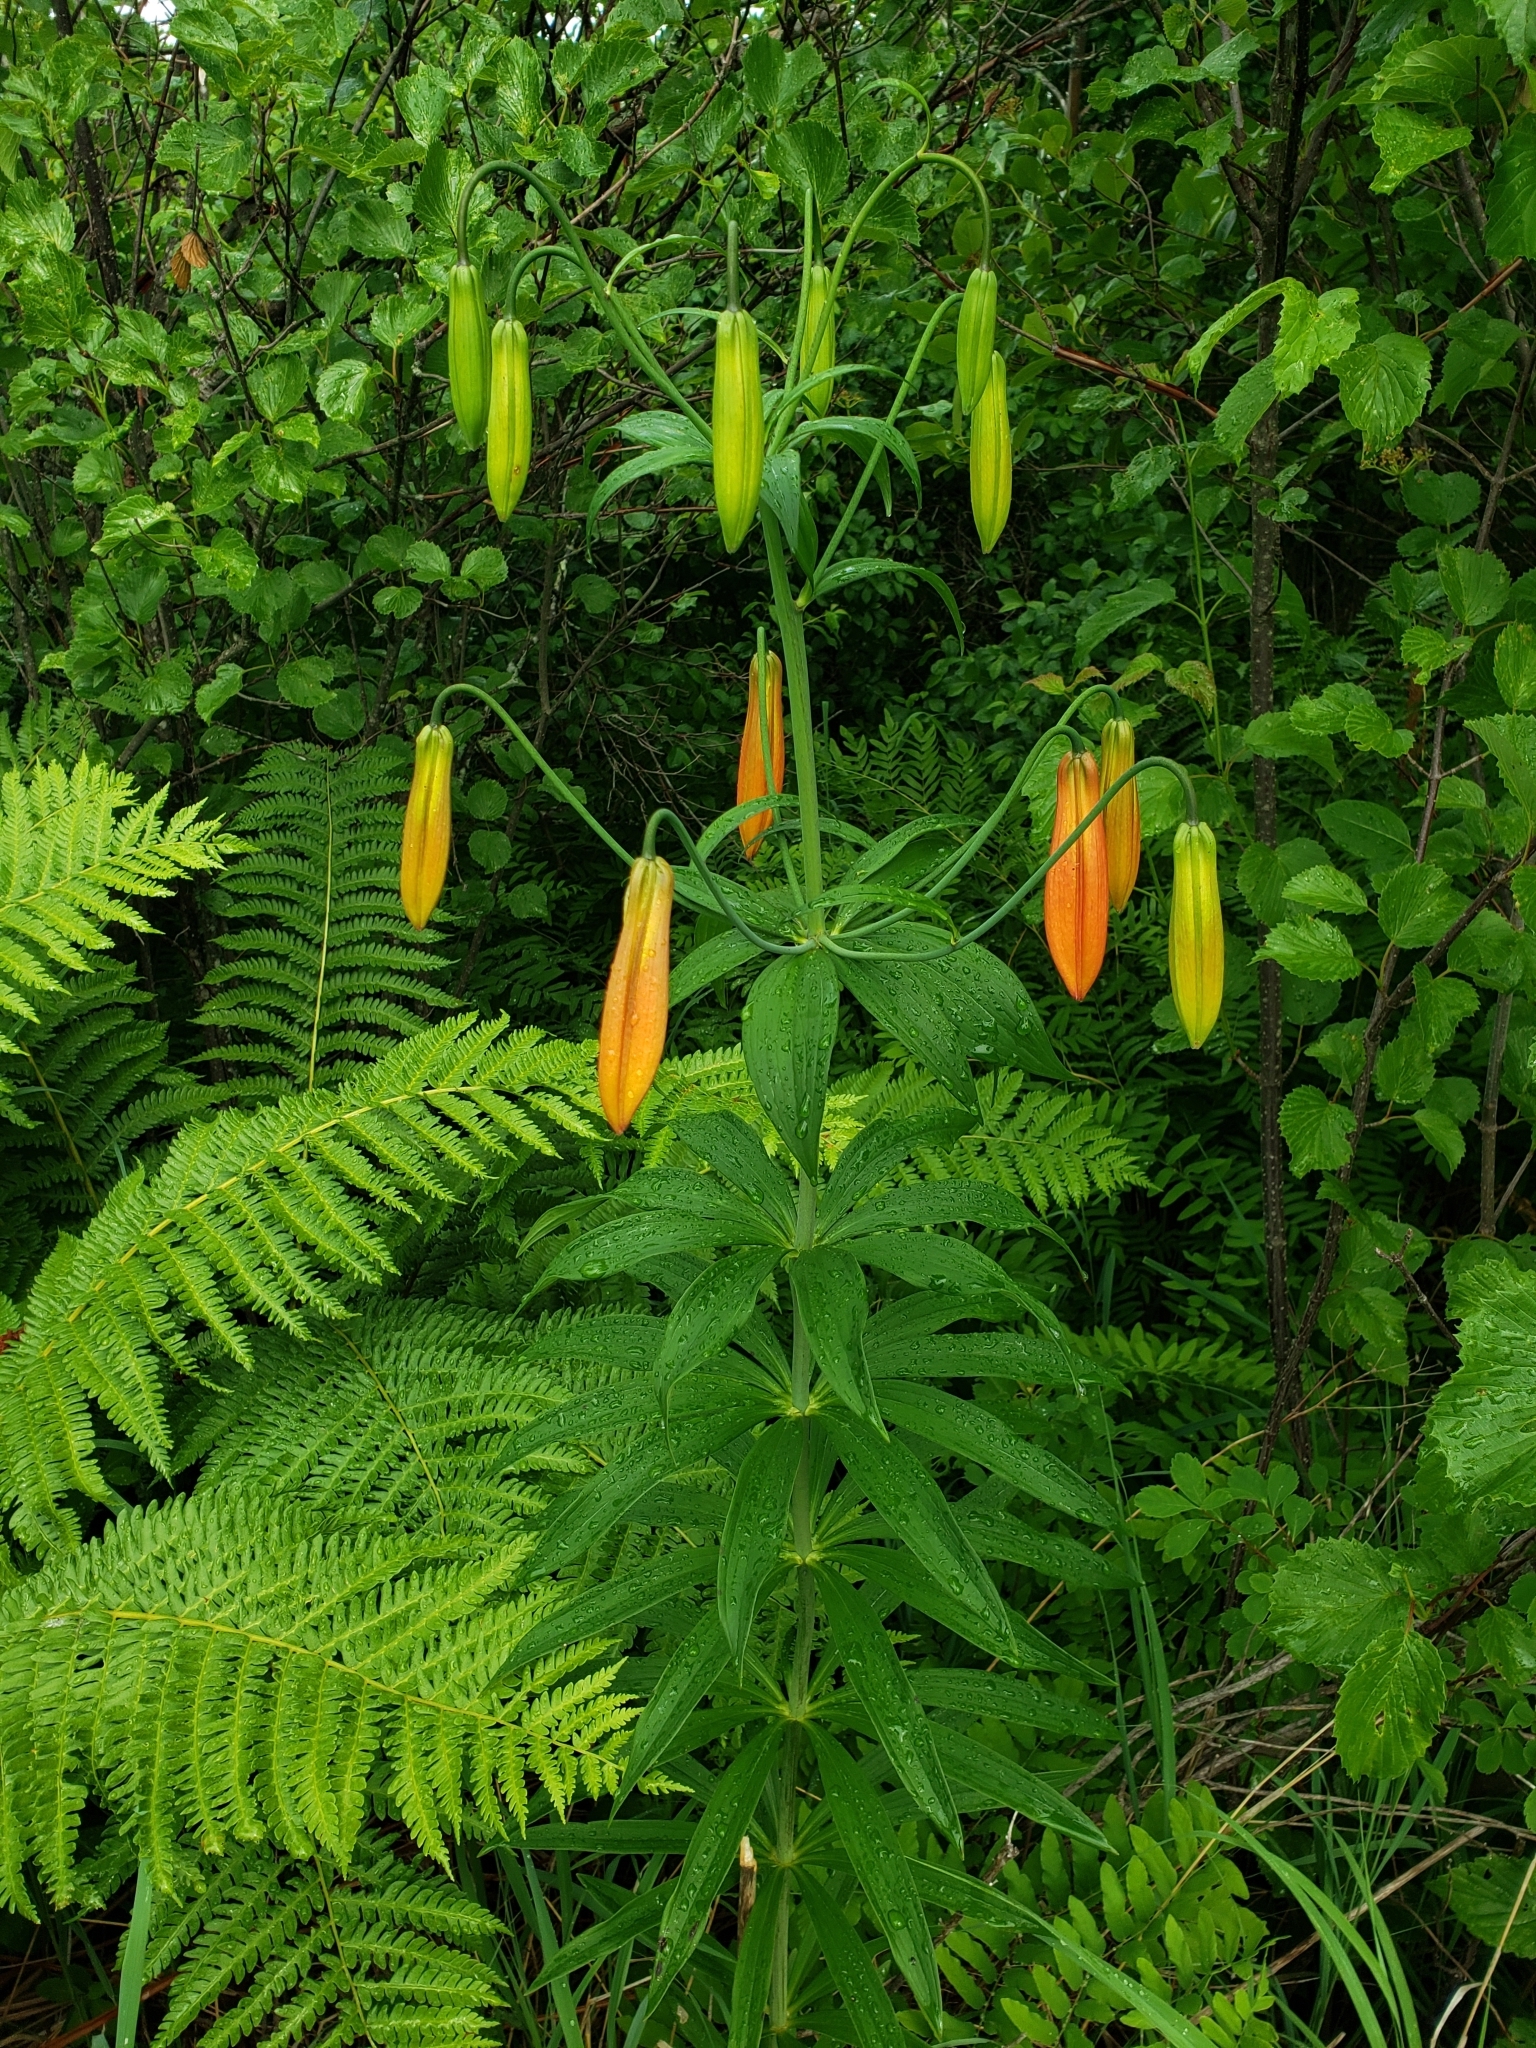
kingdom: Plantae
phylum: Tracheophyta
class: Liliopsida
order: Liliales
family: Liliaceae
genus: Lilium
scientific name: Lilium canadense
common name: Canada lily
